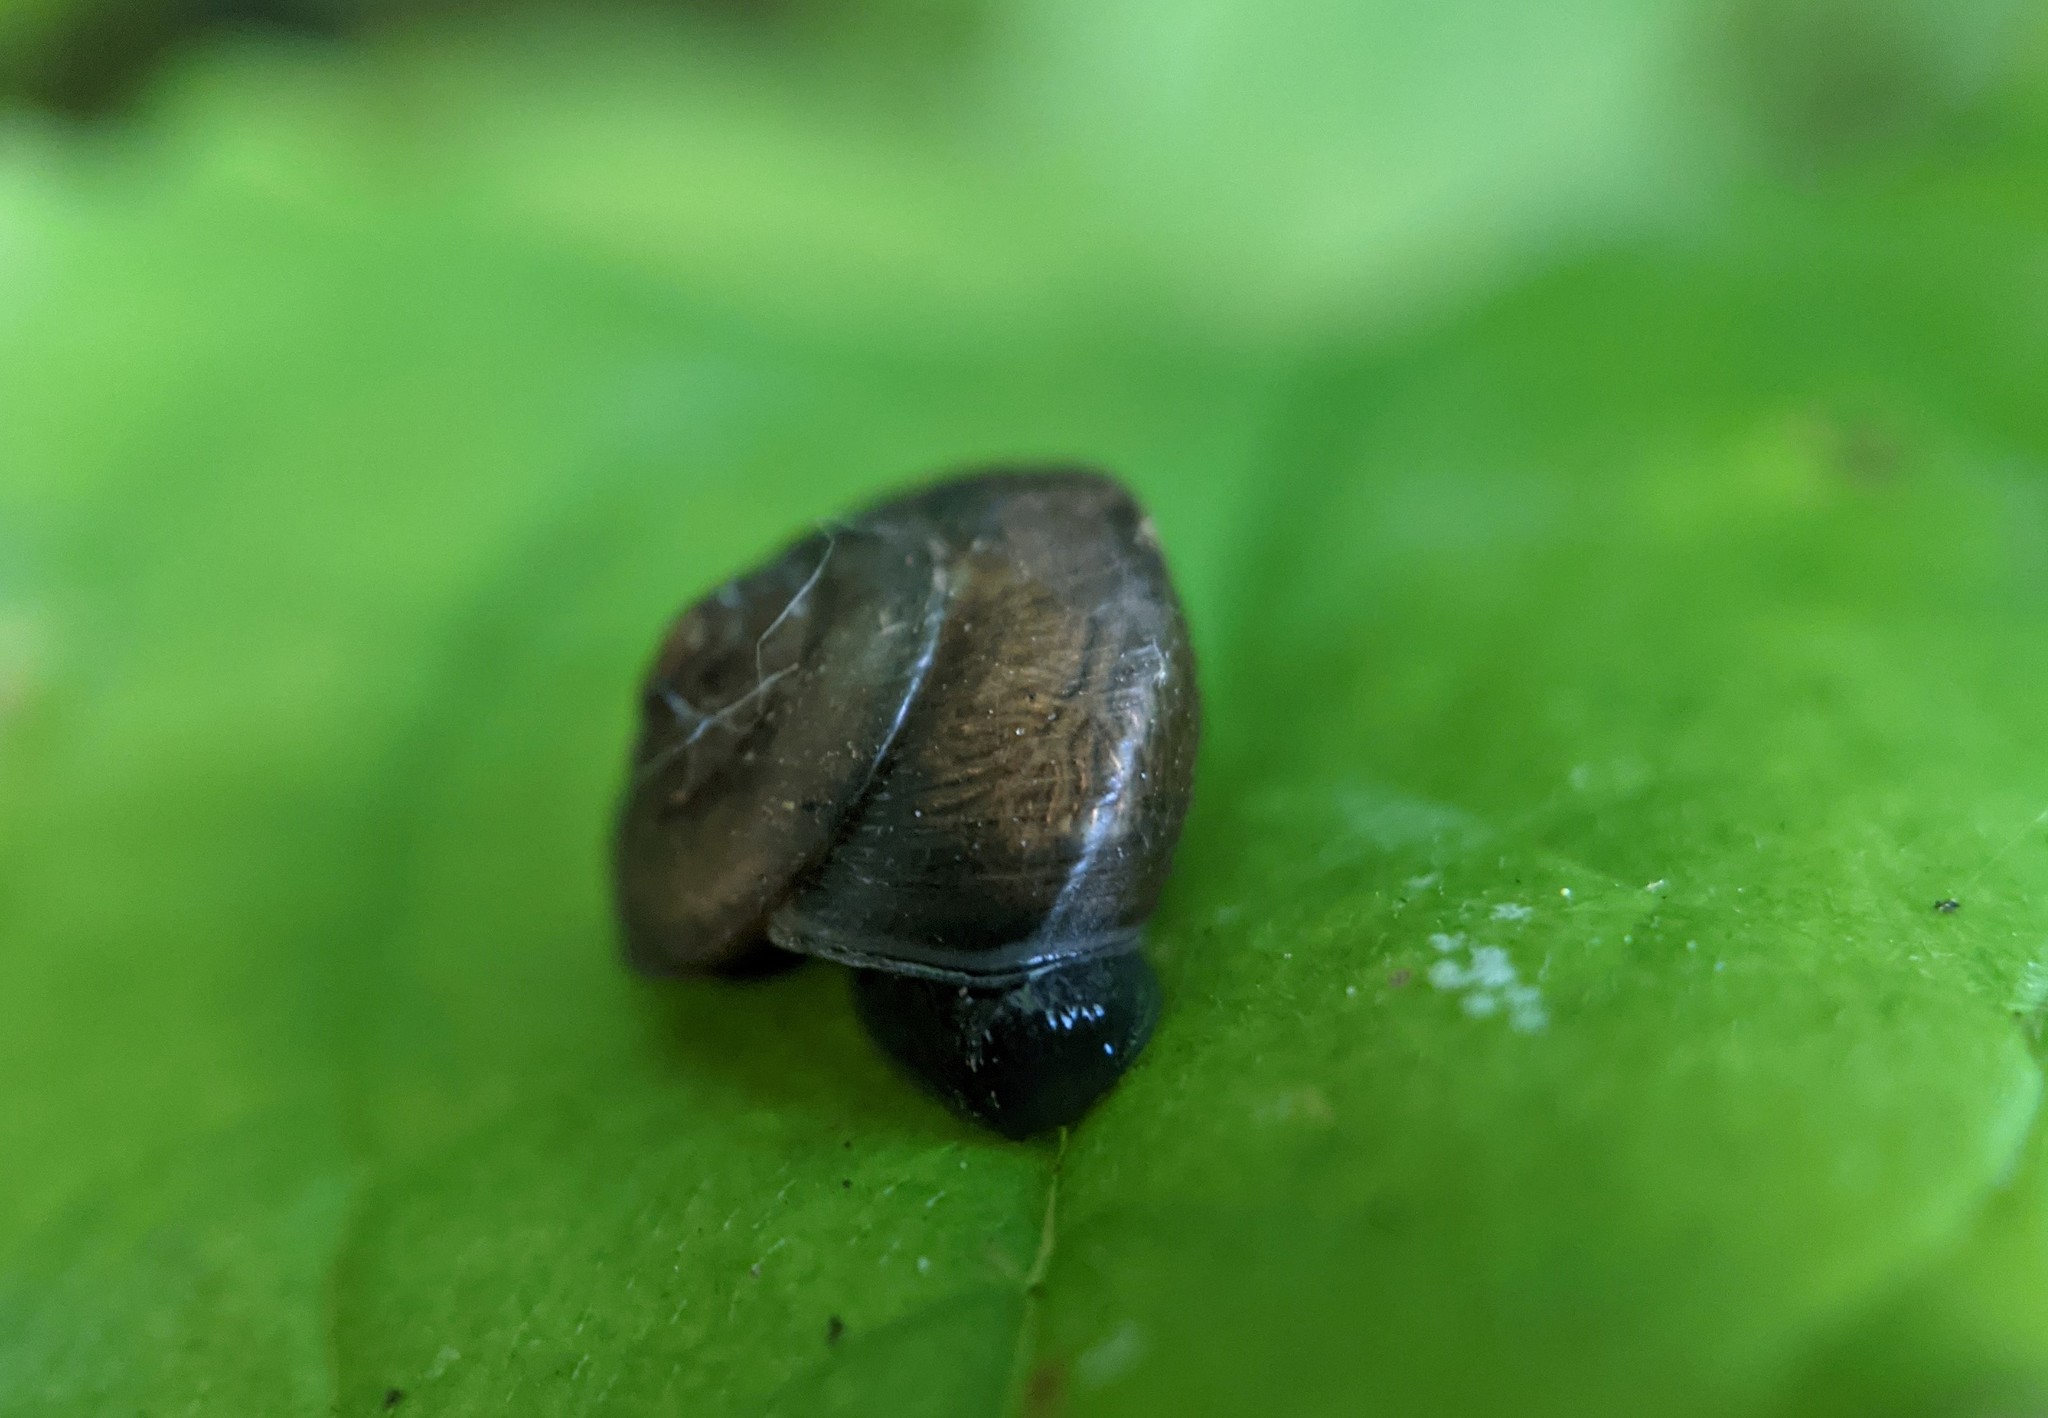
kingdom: Animalia
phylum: Mollusca
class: Gastropoda
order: Stylommatophora
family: Hygromiidae
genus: Hygromia
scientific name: Hygromia cinctella
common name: Girdled snail
